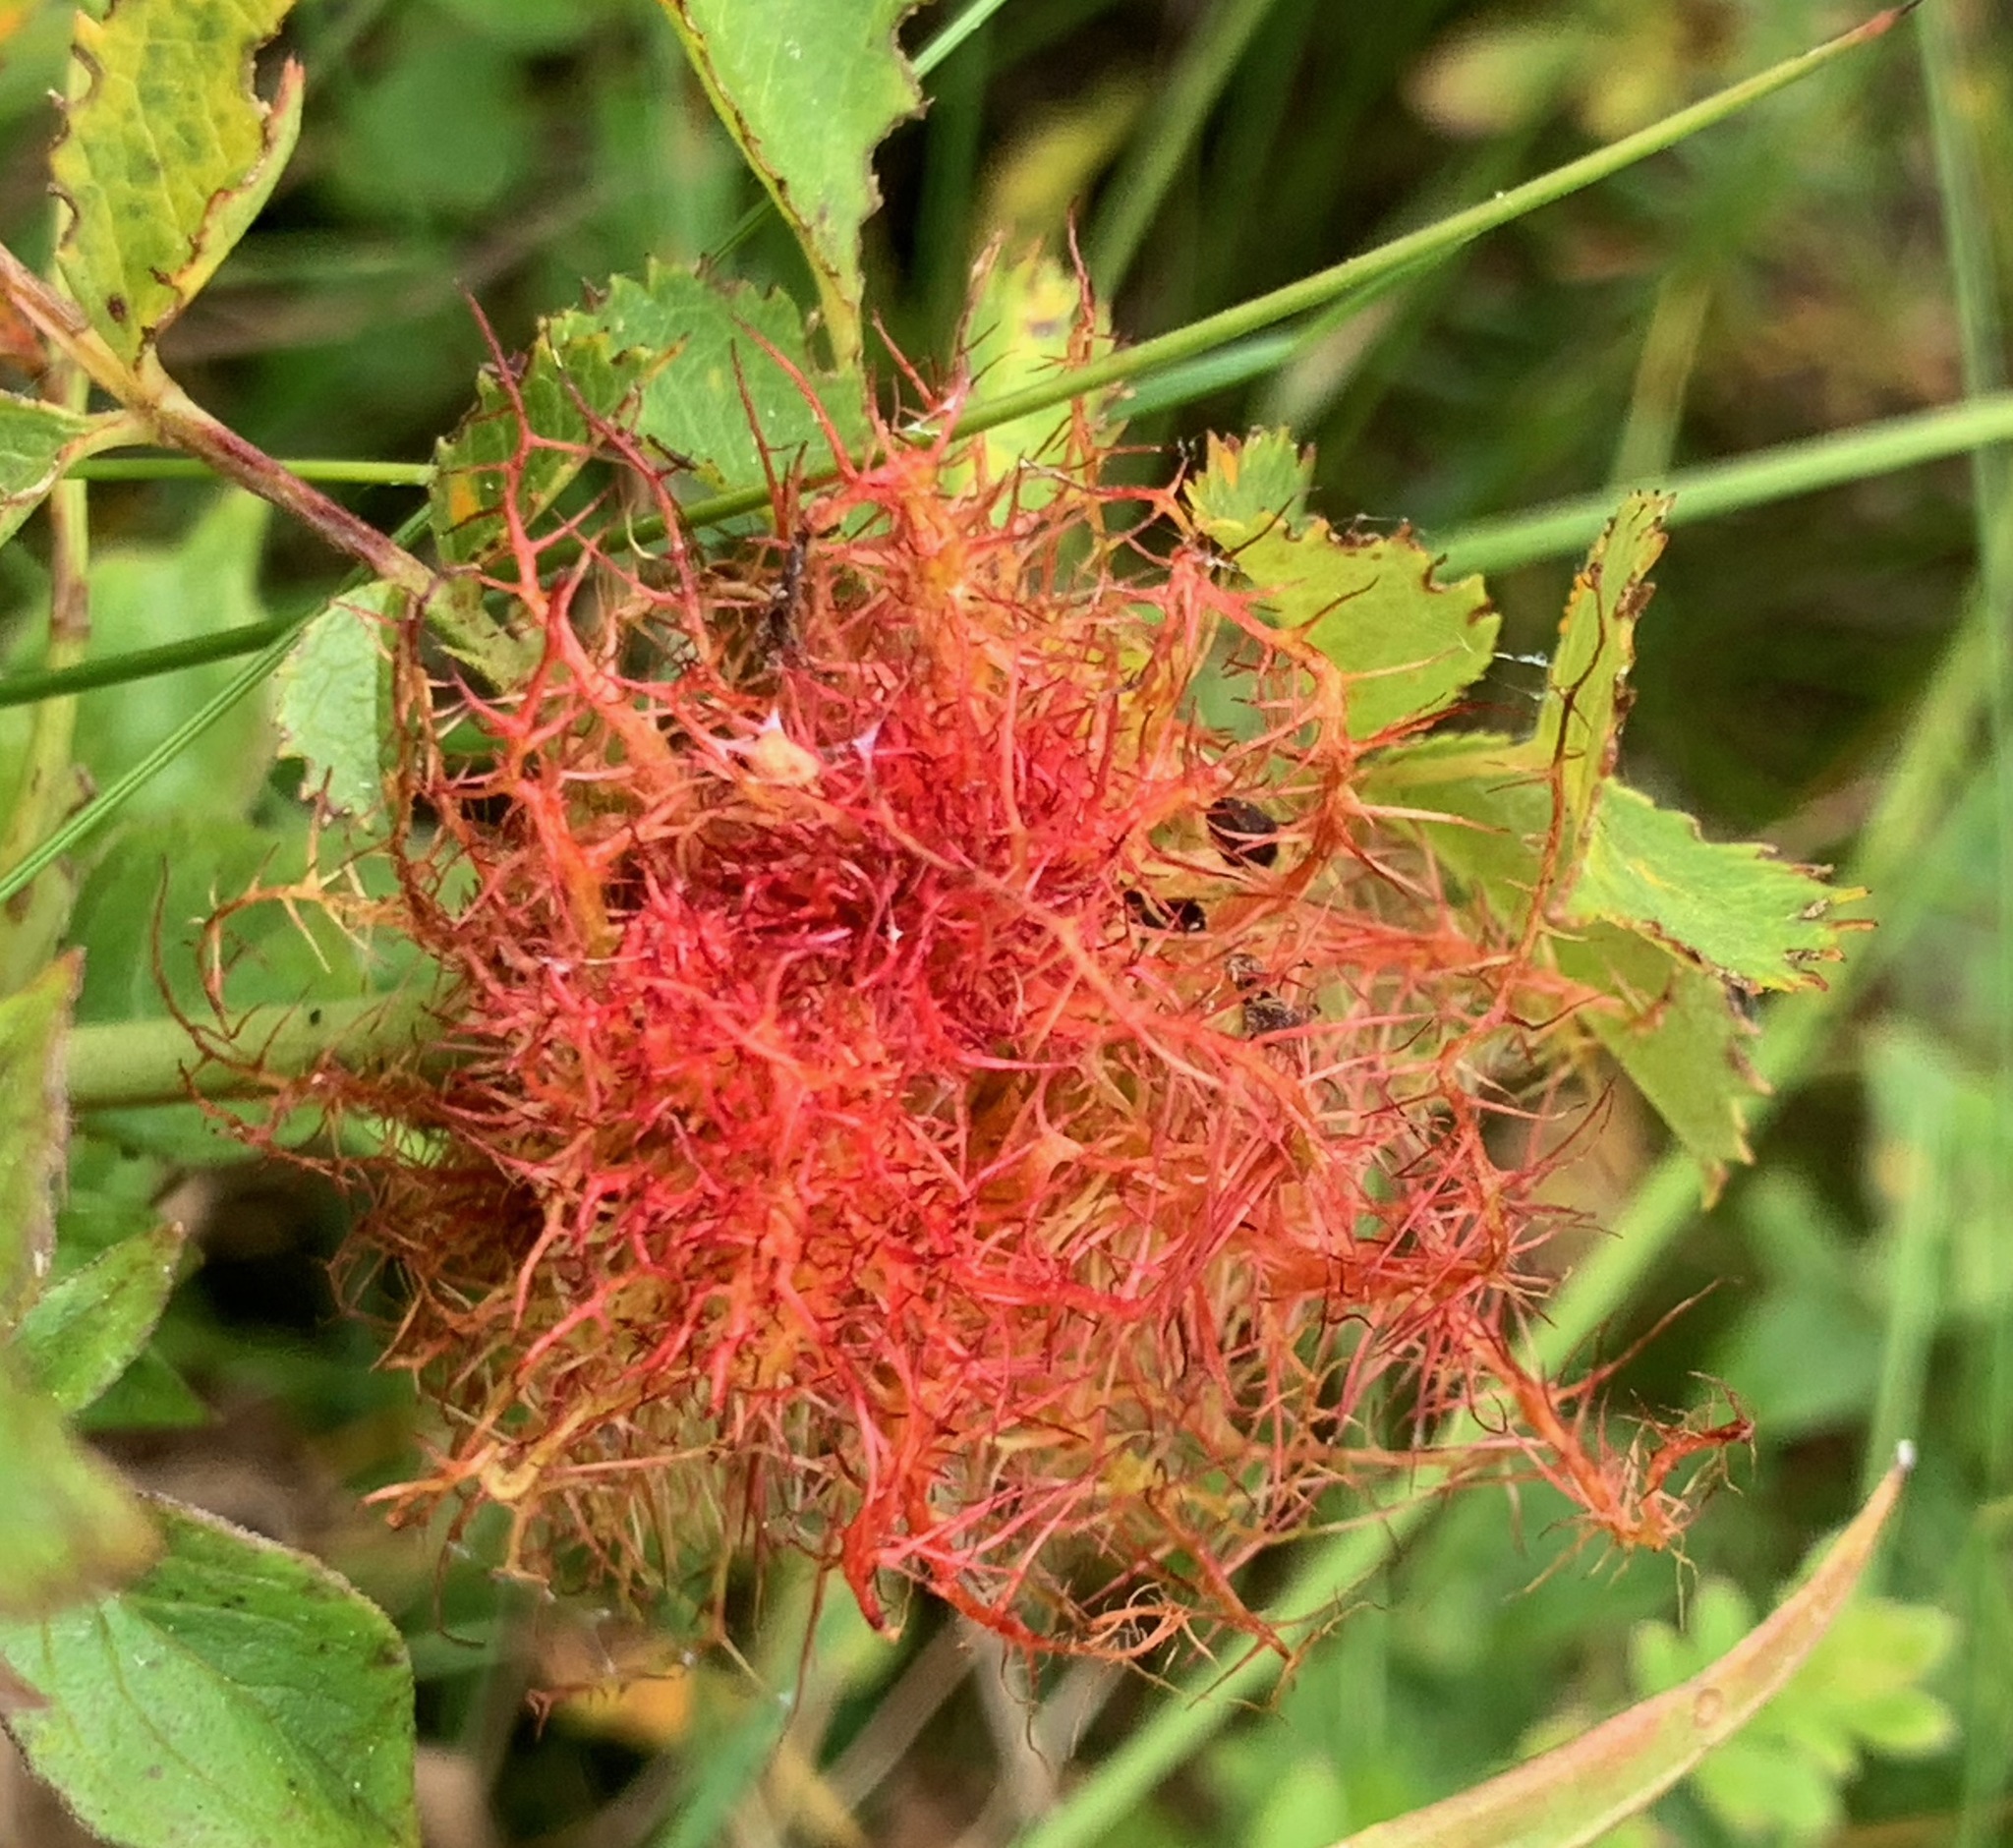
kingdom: Animalia
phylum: Arthropoda
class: Insecta
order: Hymenoptera
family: Cynipidae
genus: Diplolepis
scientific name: Diplolepis rosae
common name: Bedeguar gall
